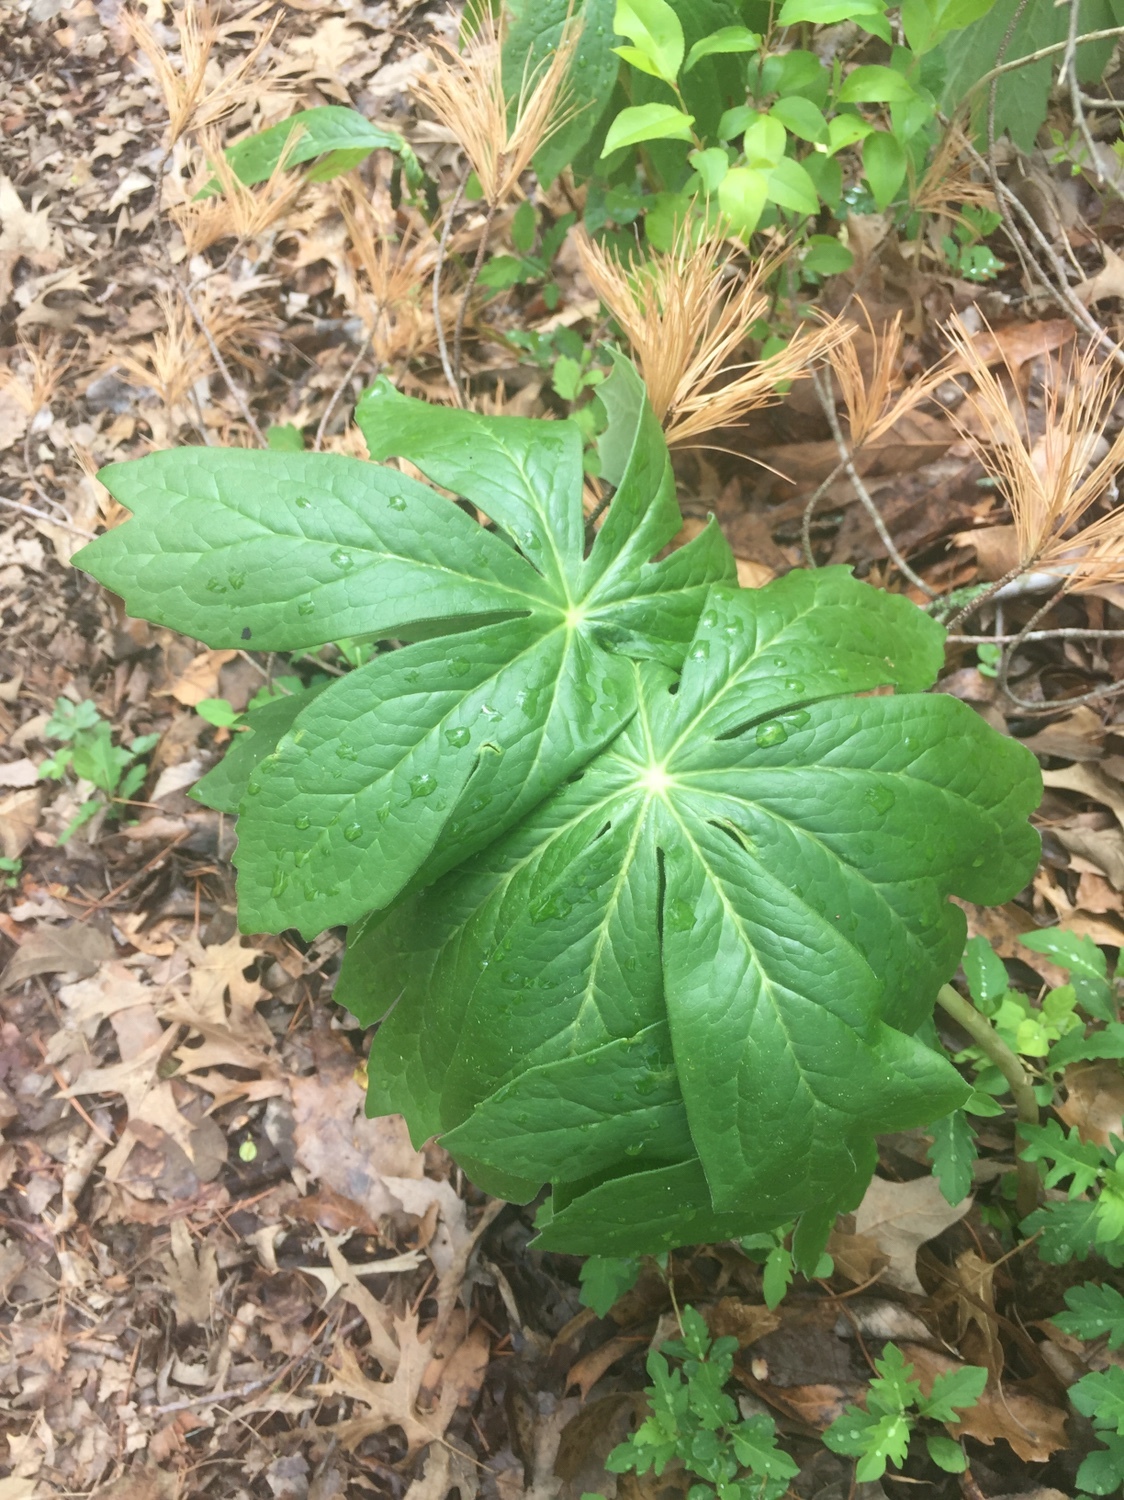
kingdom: Plantae
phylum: Tracheophyta
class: Magnoliopsida
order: Ranunculales
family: Berberidaceae
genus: Podophyllum
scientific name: Podophyllum peltatum
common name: Wild mandrake
